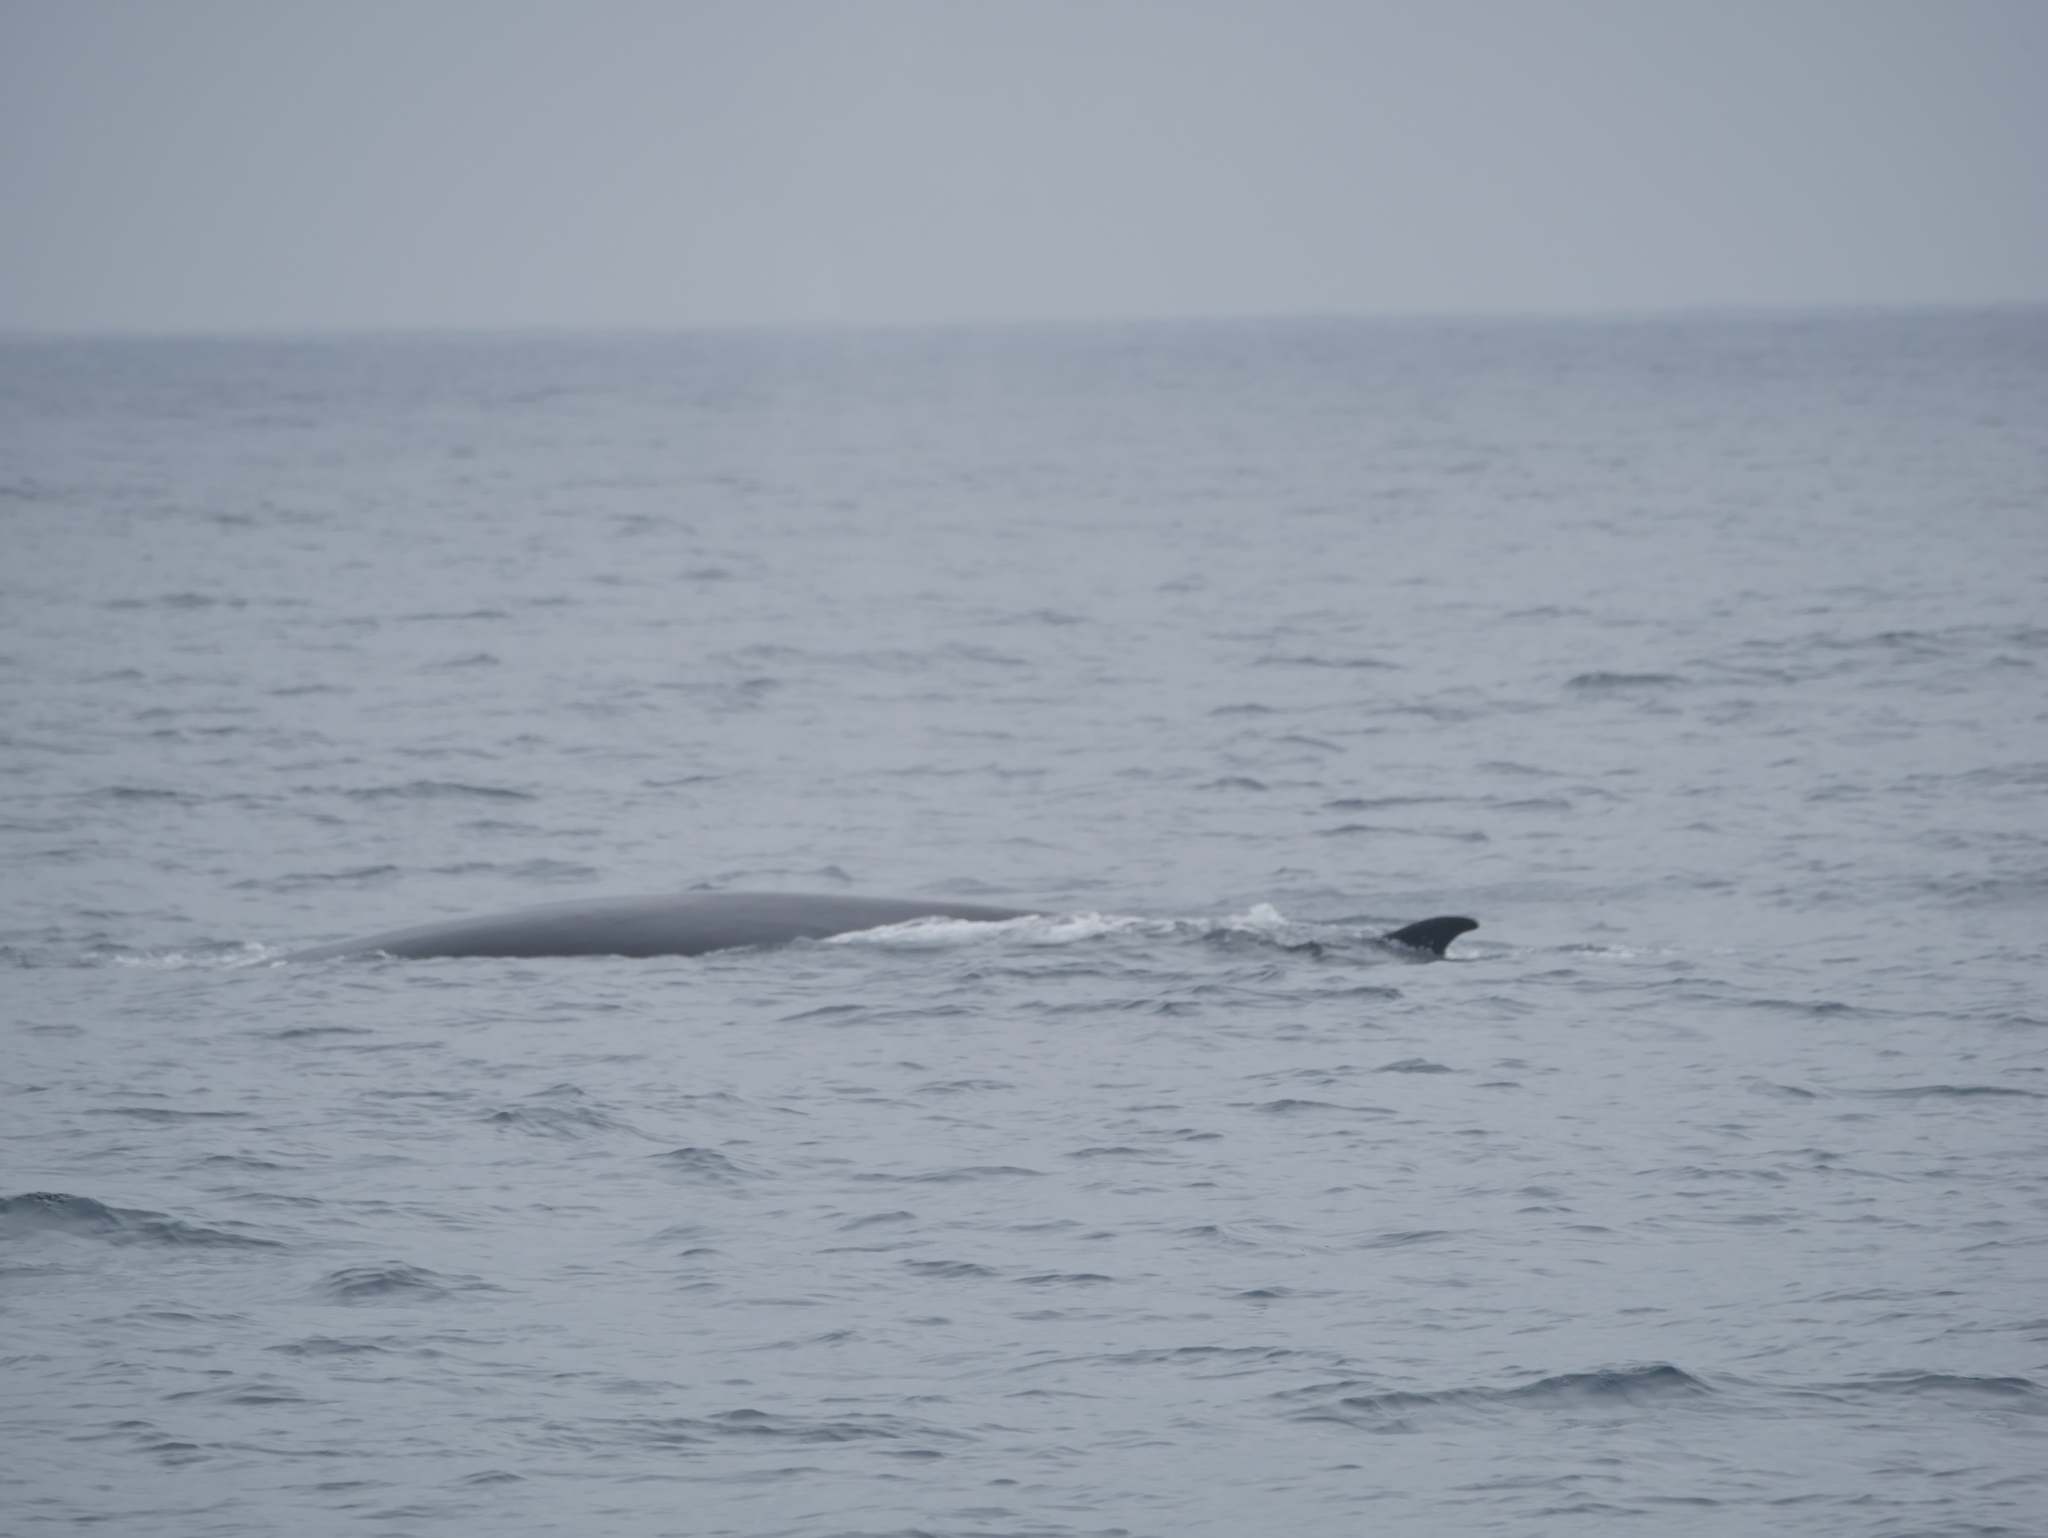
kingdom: Animalia
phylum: Chordata
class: Mammalia
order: Cetacea
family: Balaenopteridae
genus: Balaenoptera
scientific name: Balaenoptera physalus
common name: Fin whale
